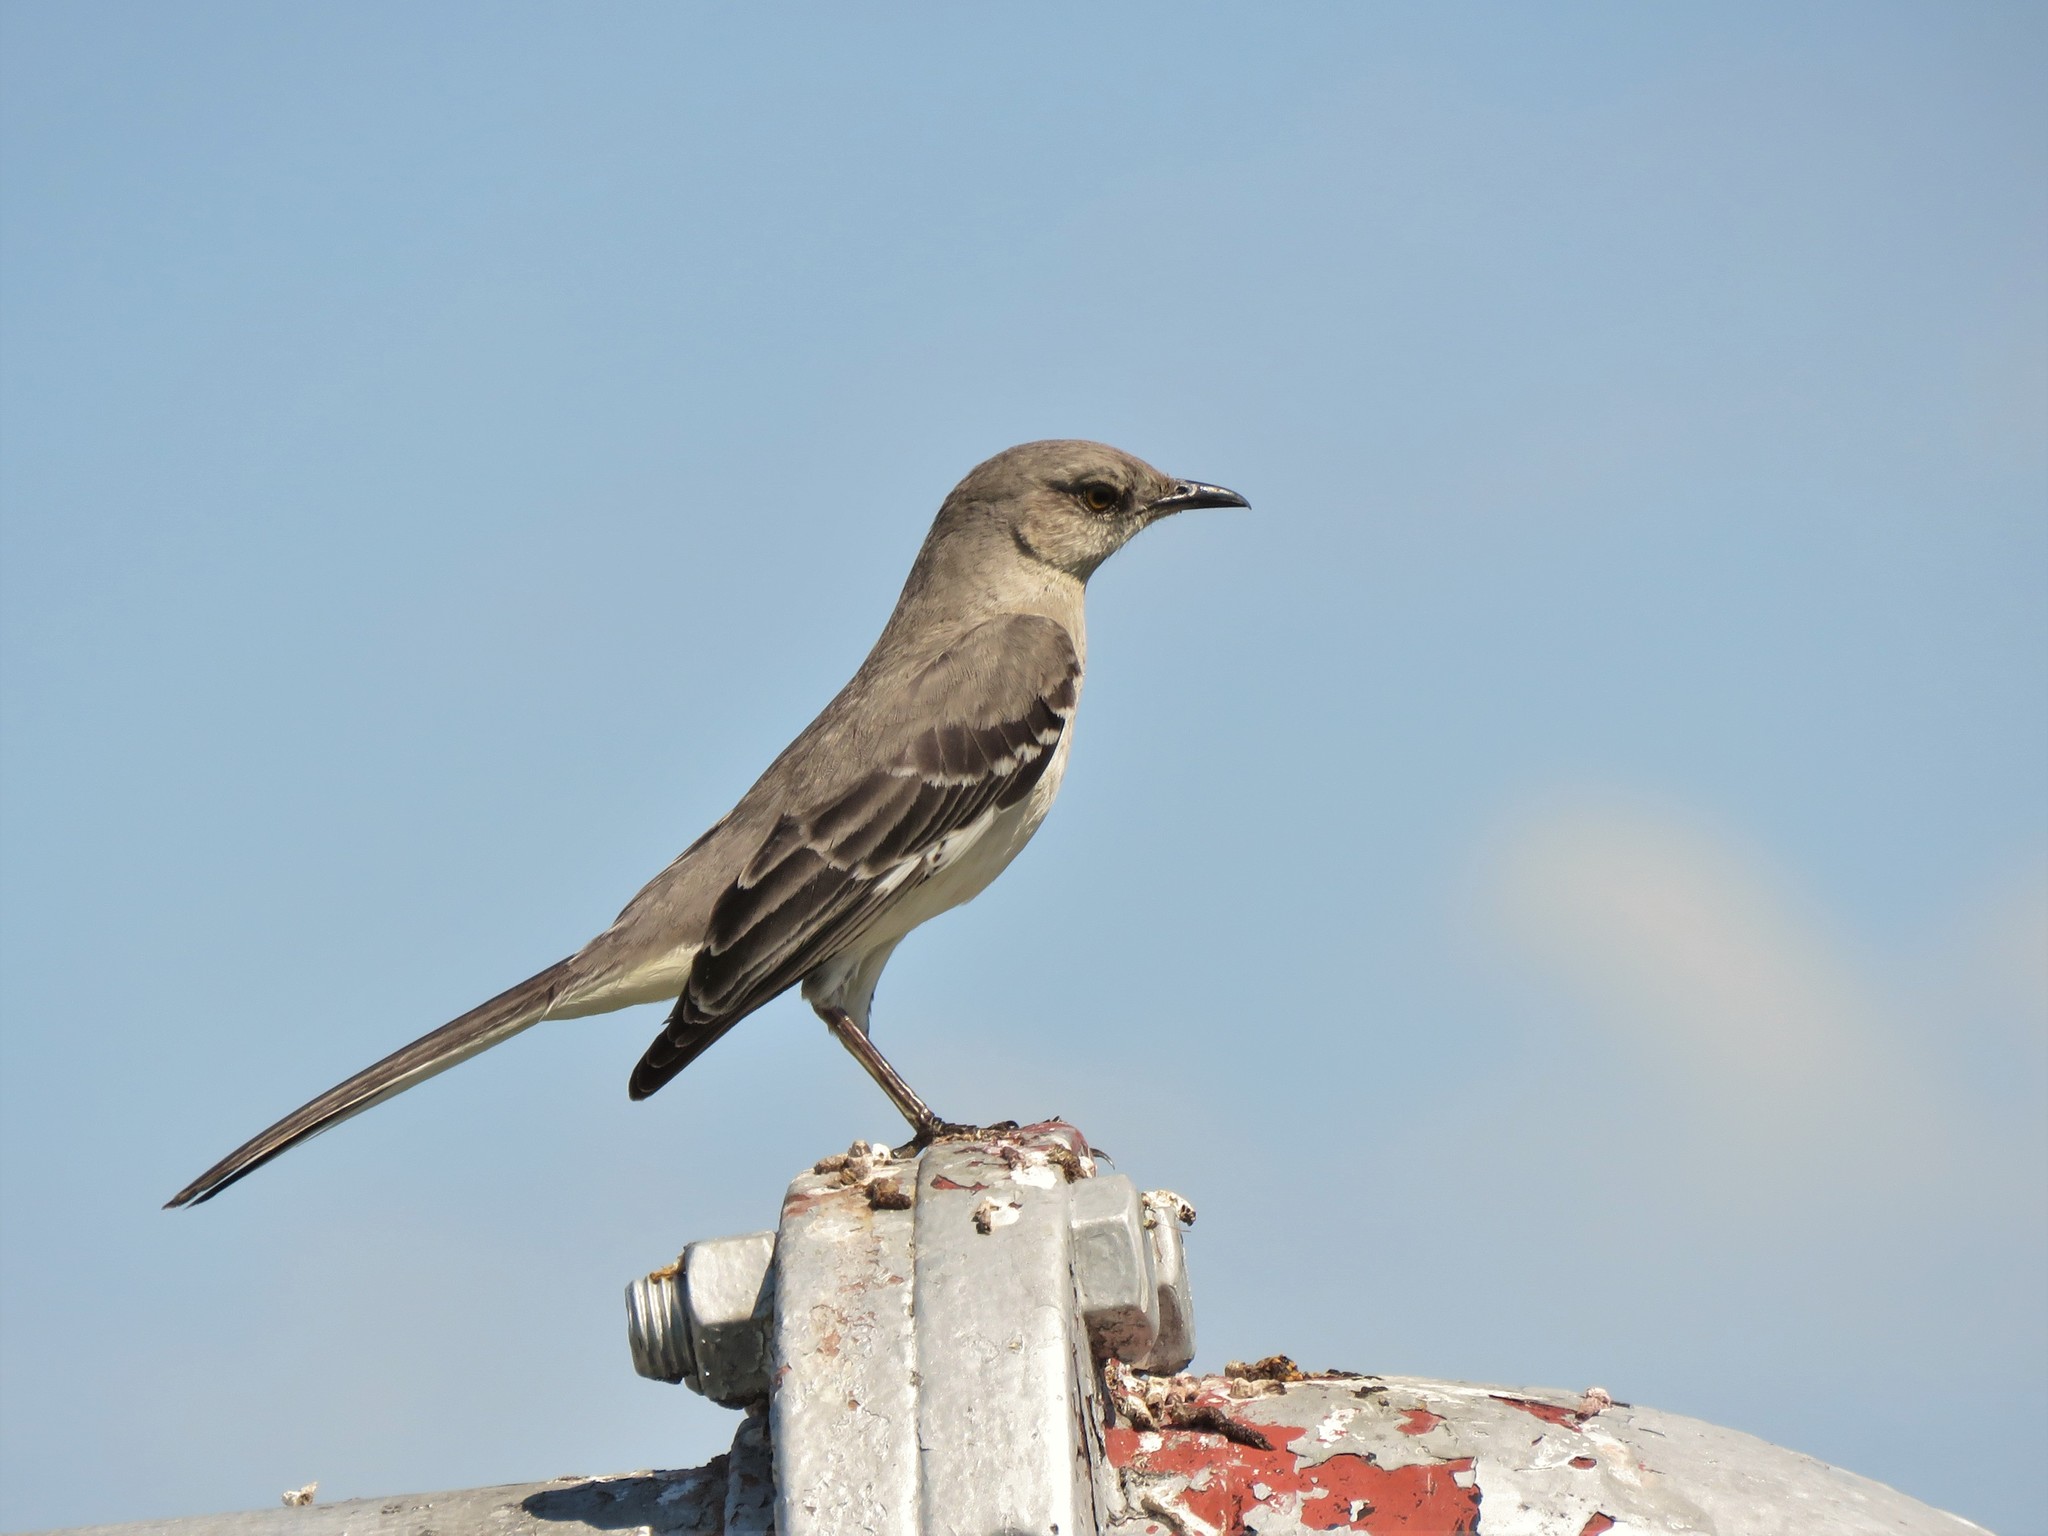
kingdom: Animalia
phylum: Chordata
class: Aves
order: Passeriformes
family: Mimidae
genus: Mimus
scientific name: Mimus polyglottos
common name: Northern mockingbird
